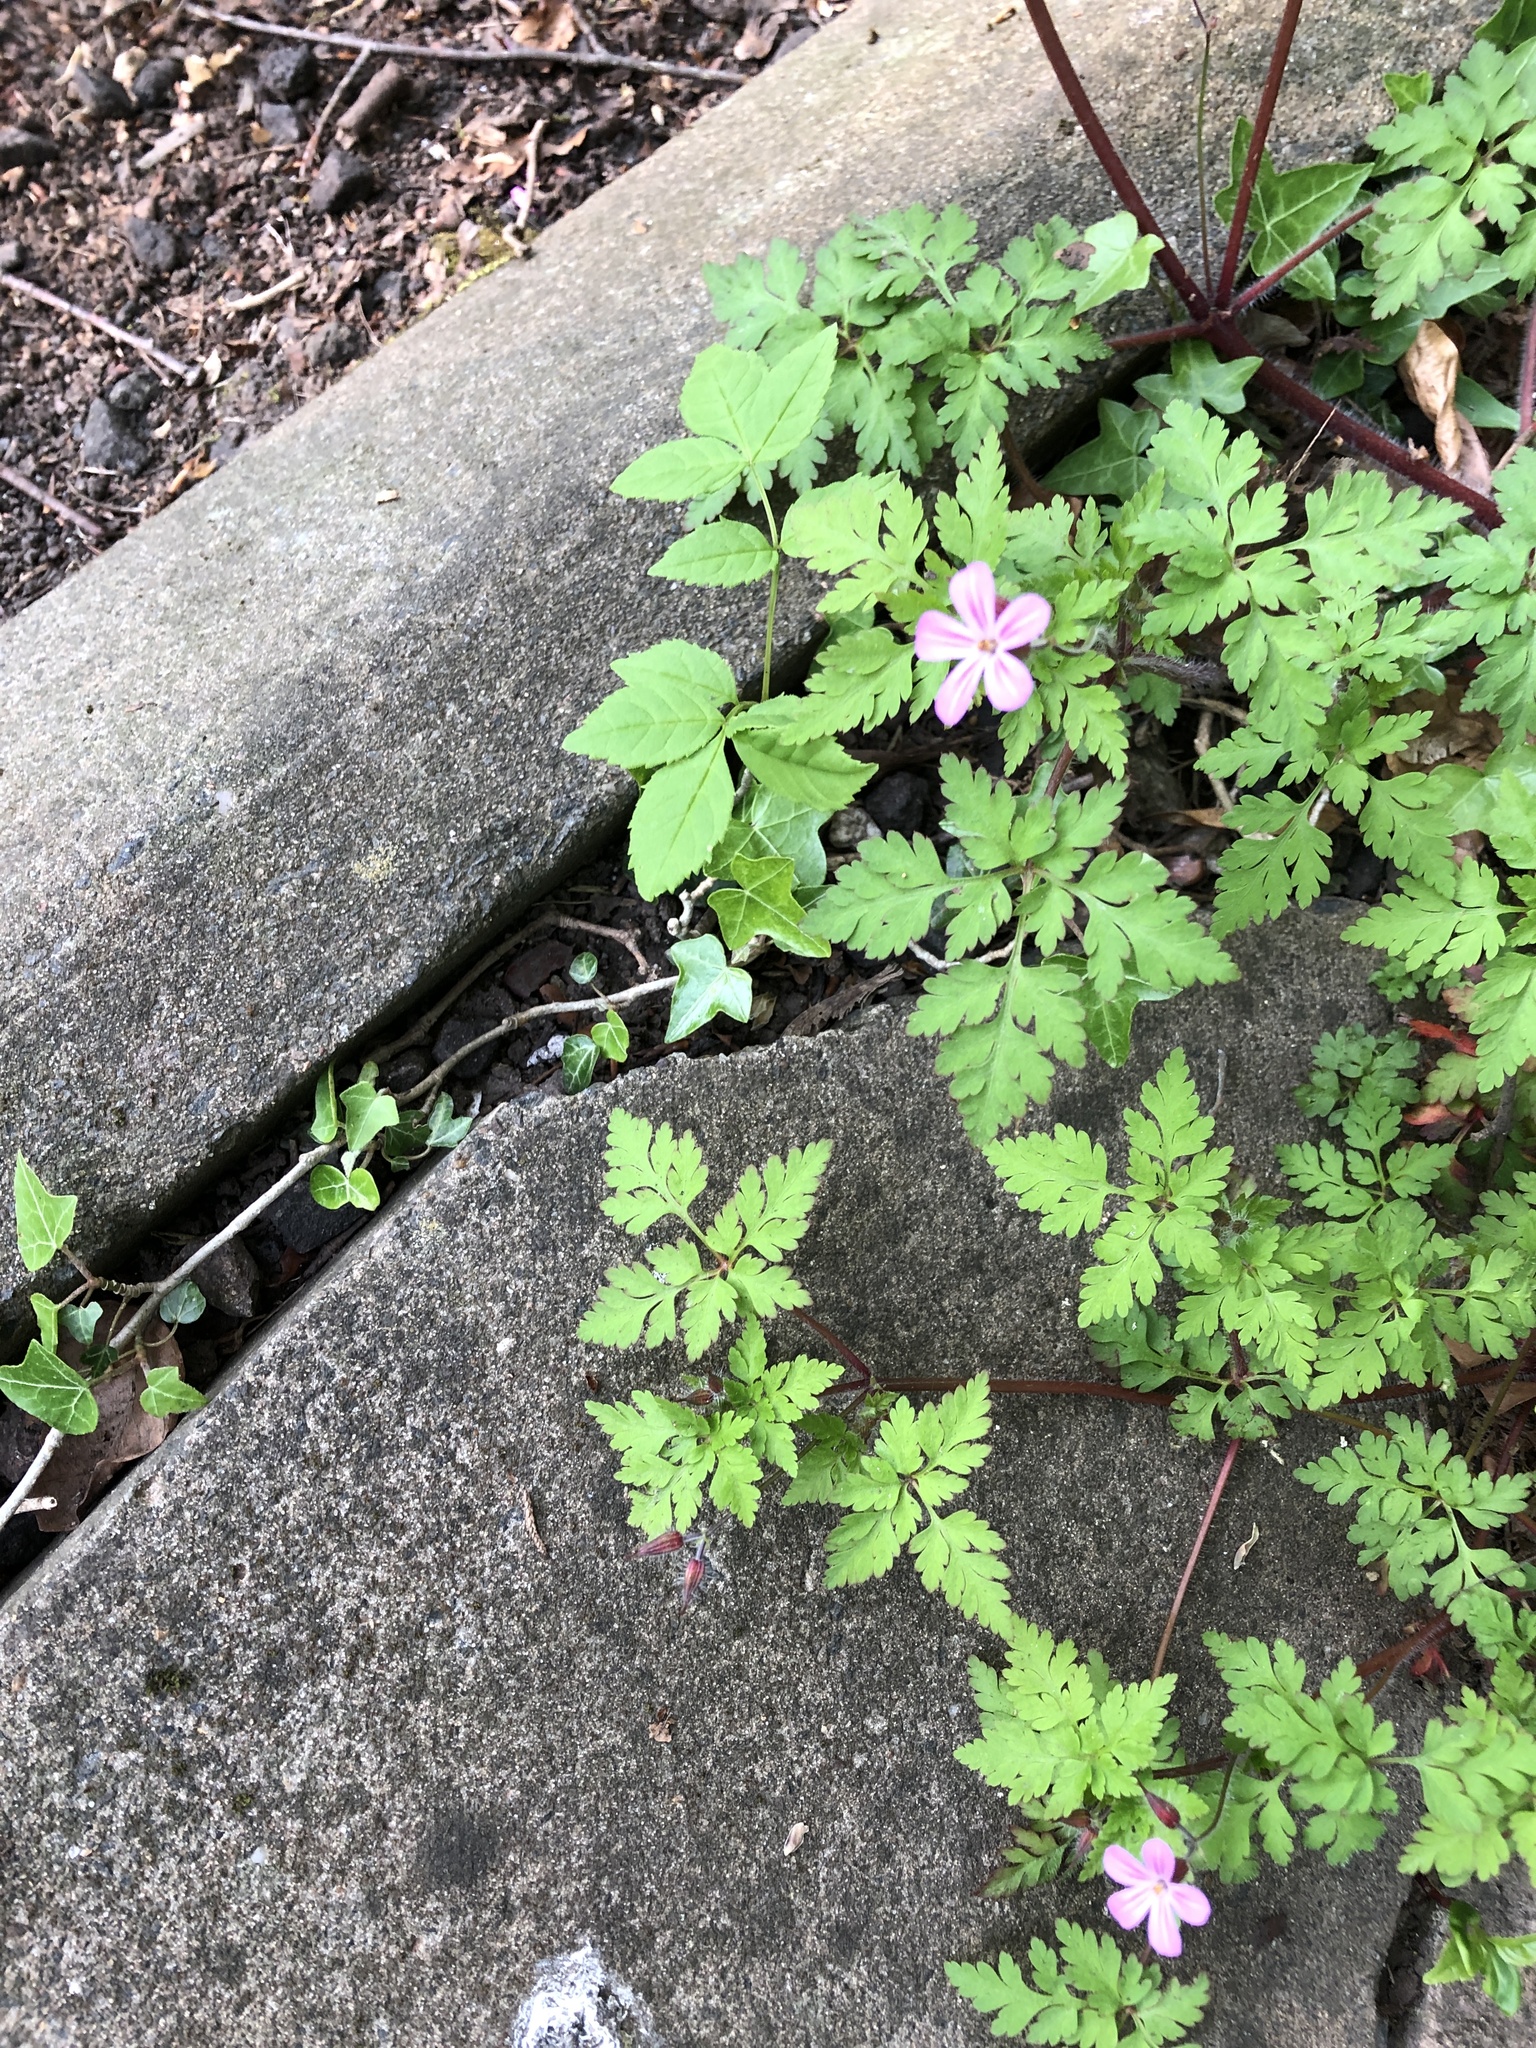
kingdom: Plantae
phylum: Tracheophyta
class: Magnoliopsida
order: Geraniales
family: Geraniaceae
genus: Geranium
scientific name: Geranium robertianum
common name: Herb-robert
